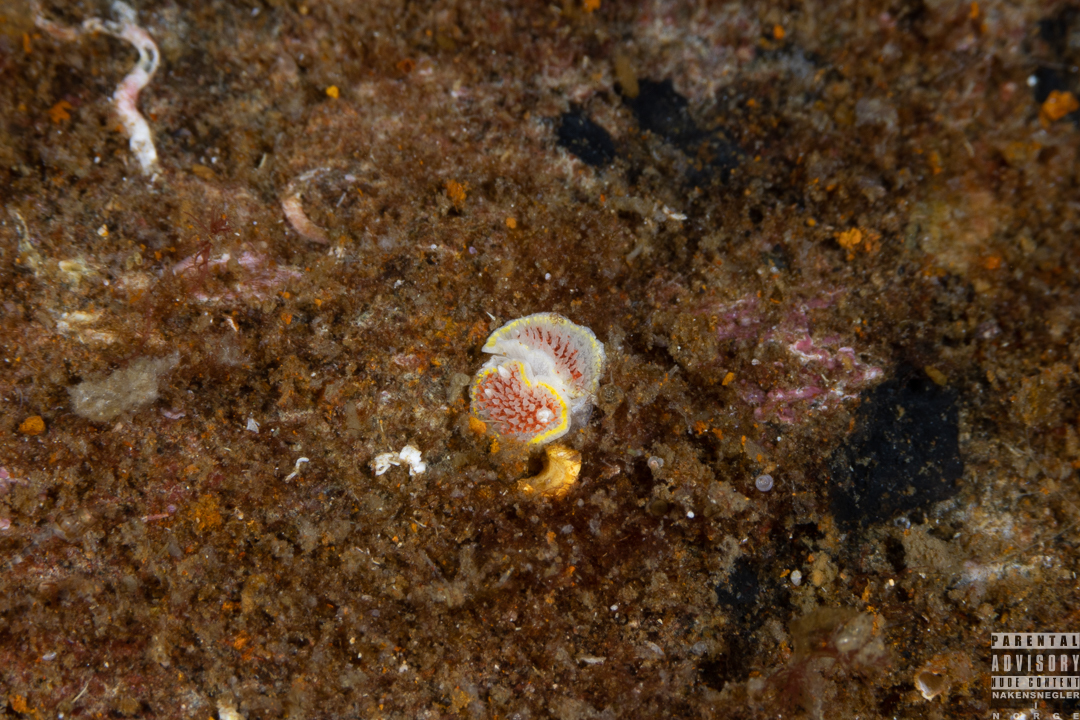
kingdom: Animalia
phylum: Mollusca
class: Gastropoda
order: Nudibranchia
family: Calycidorididae
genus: Diaphorodoris
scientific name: Diaphorodoris luteocincta
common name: Fried egg nudibranch
